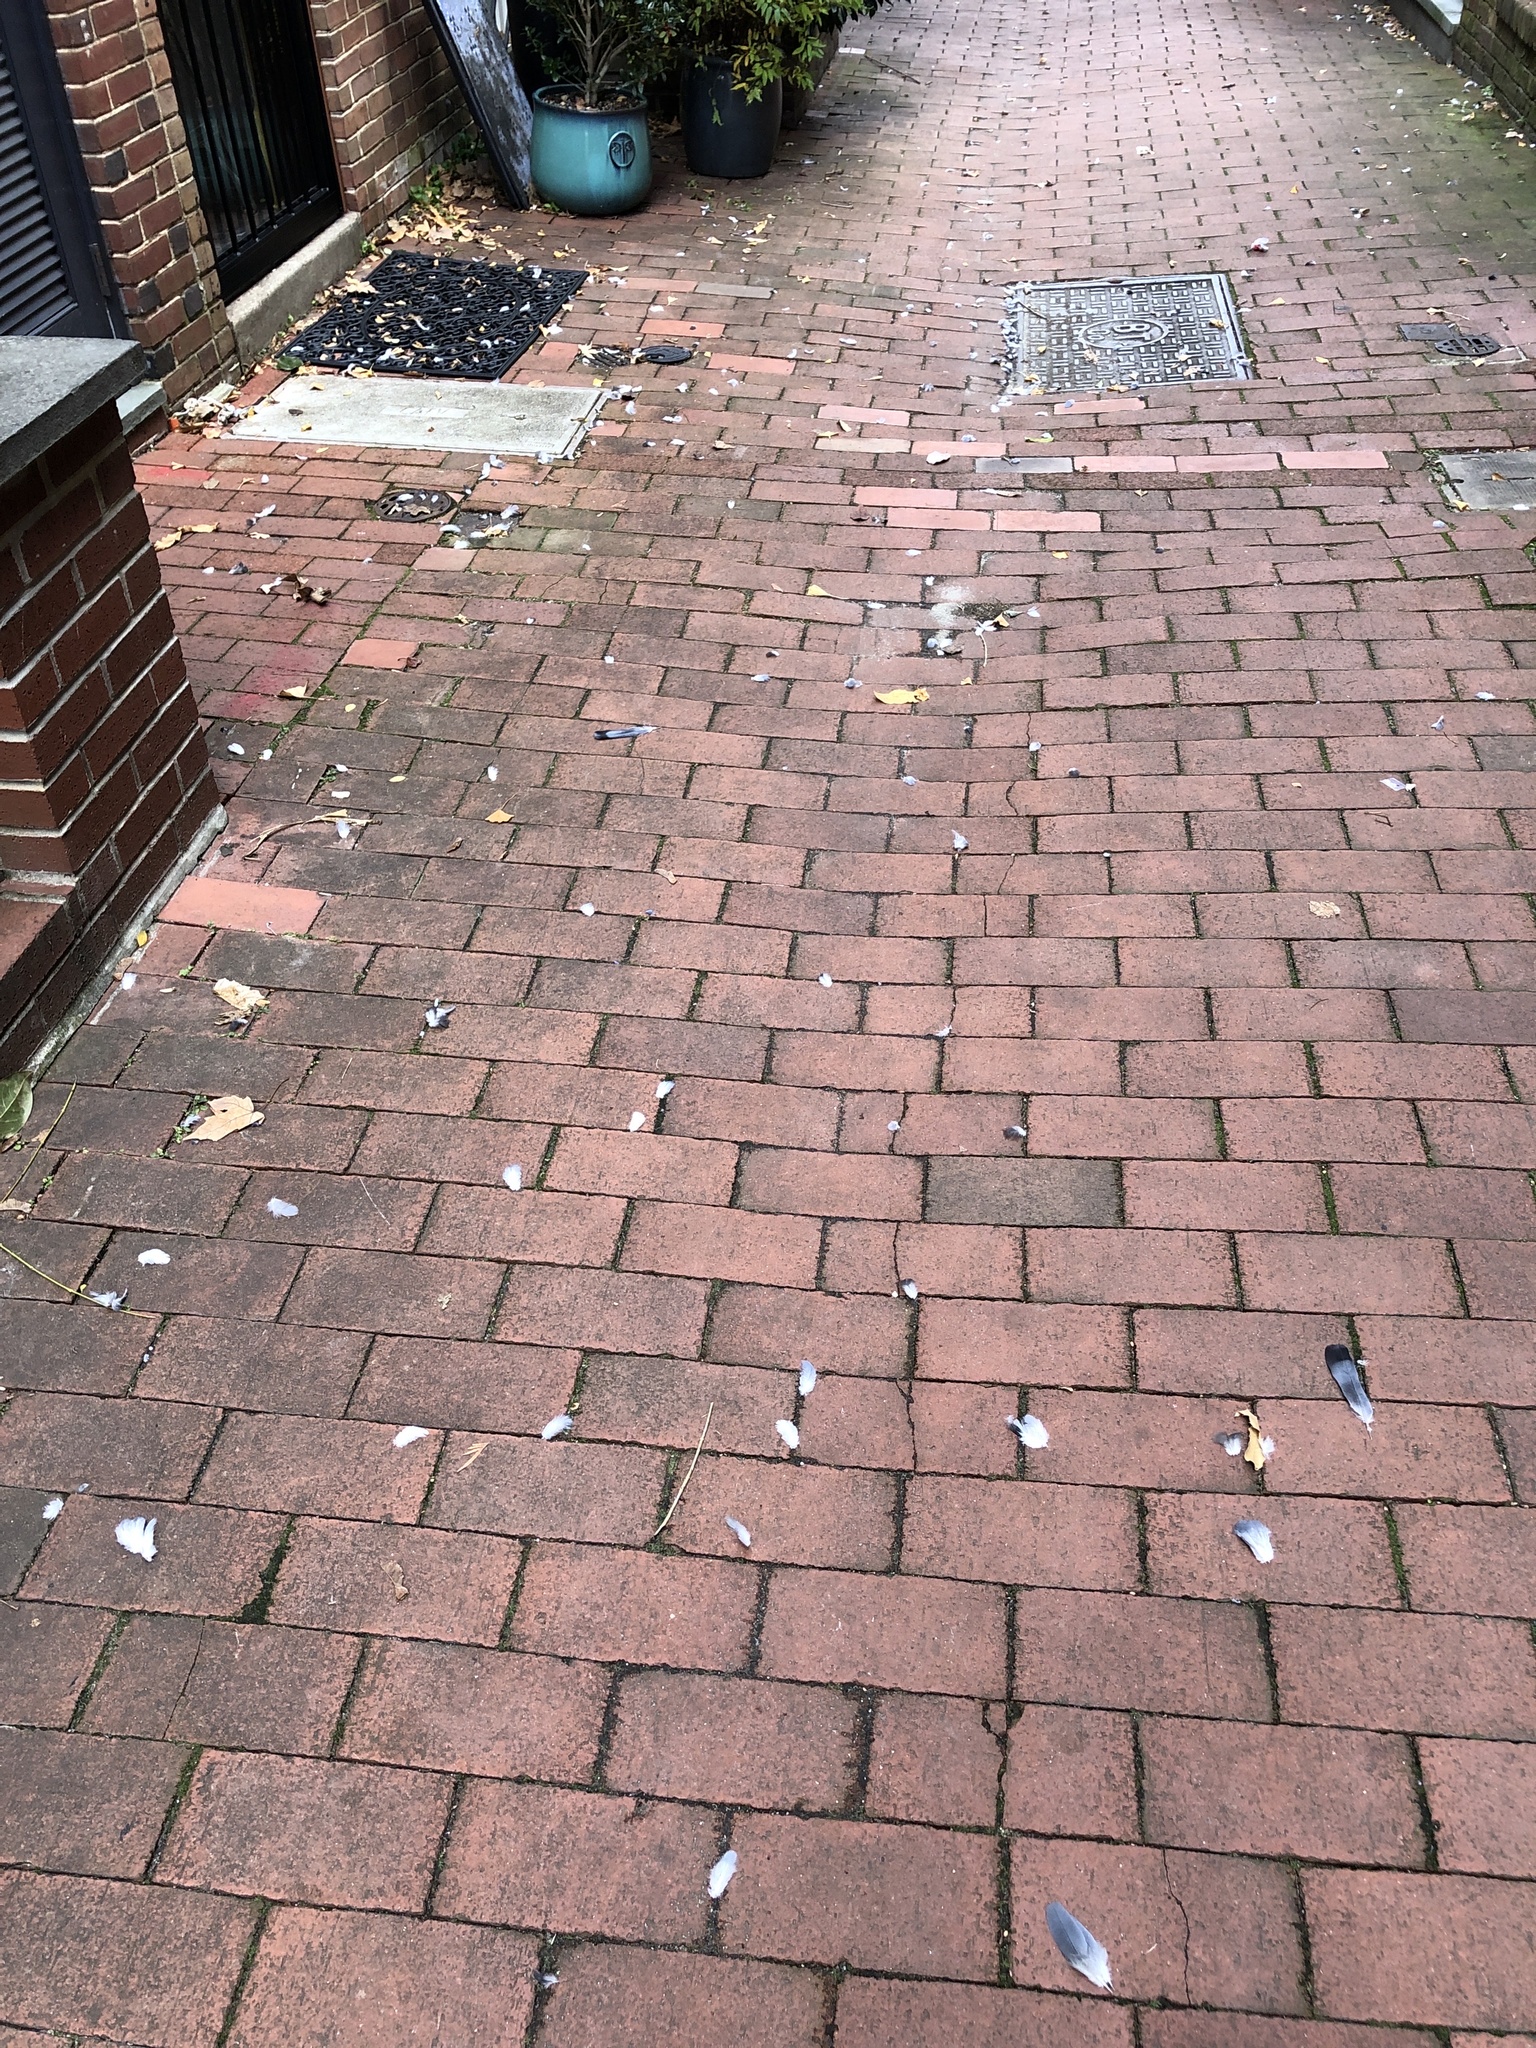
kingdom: Animalia
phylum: Chordata
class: Aves
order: Accipitriformes
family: Accipitridae
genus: Accipiter
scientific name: Accipiter cooperii
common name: Cooper's hawk
